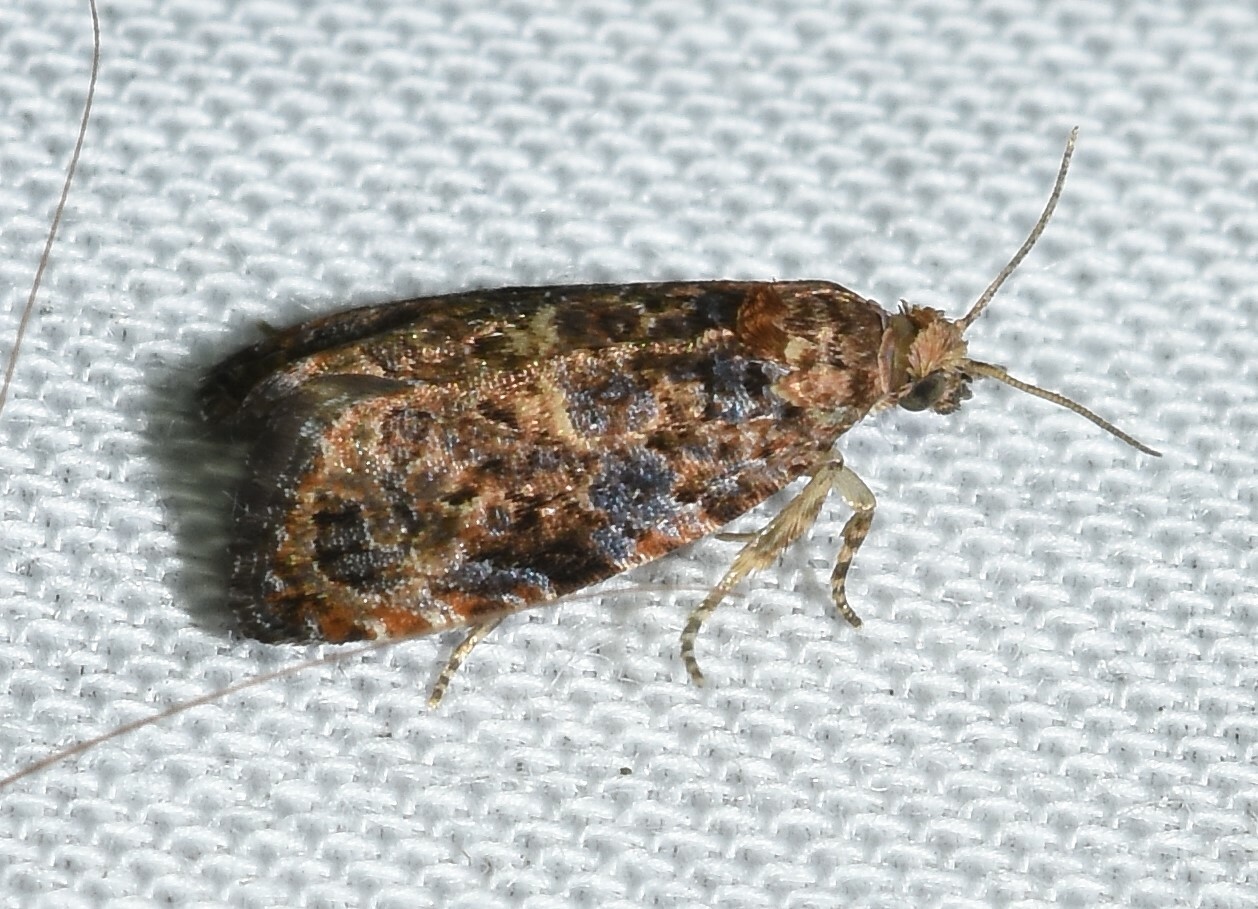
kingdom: Animalia
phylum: Arthropoda
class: Insecta
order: Lepidoptera
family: Tortricidae
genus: Endothenia
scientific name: Endothenia hebesana
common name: Verbena bud moth
